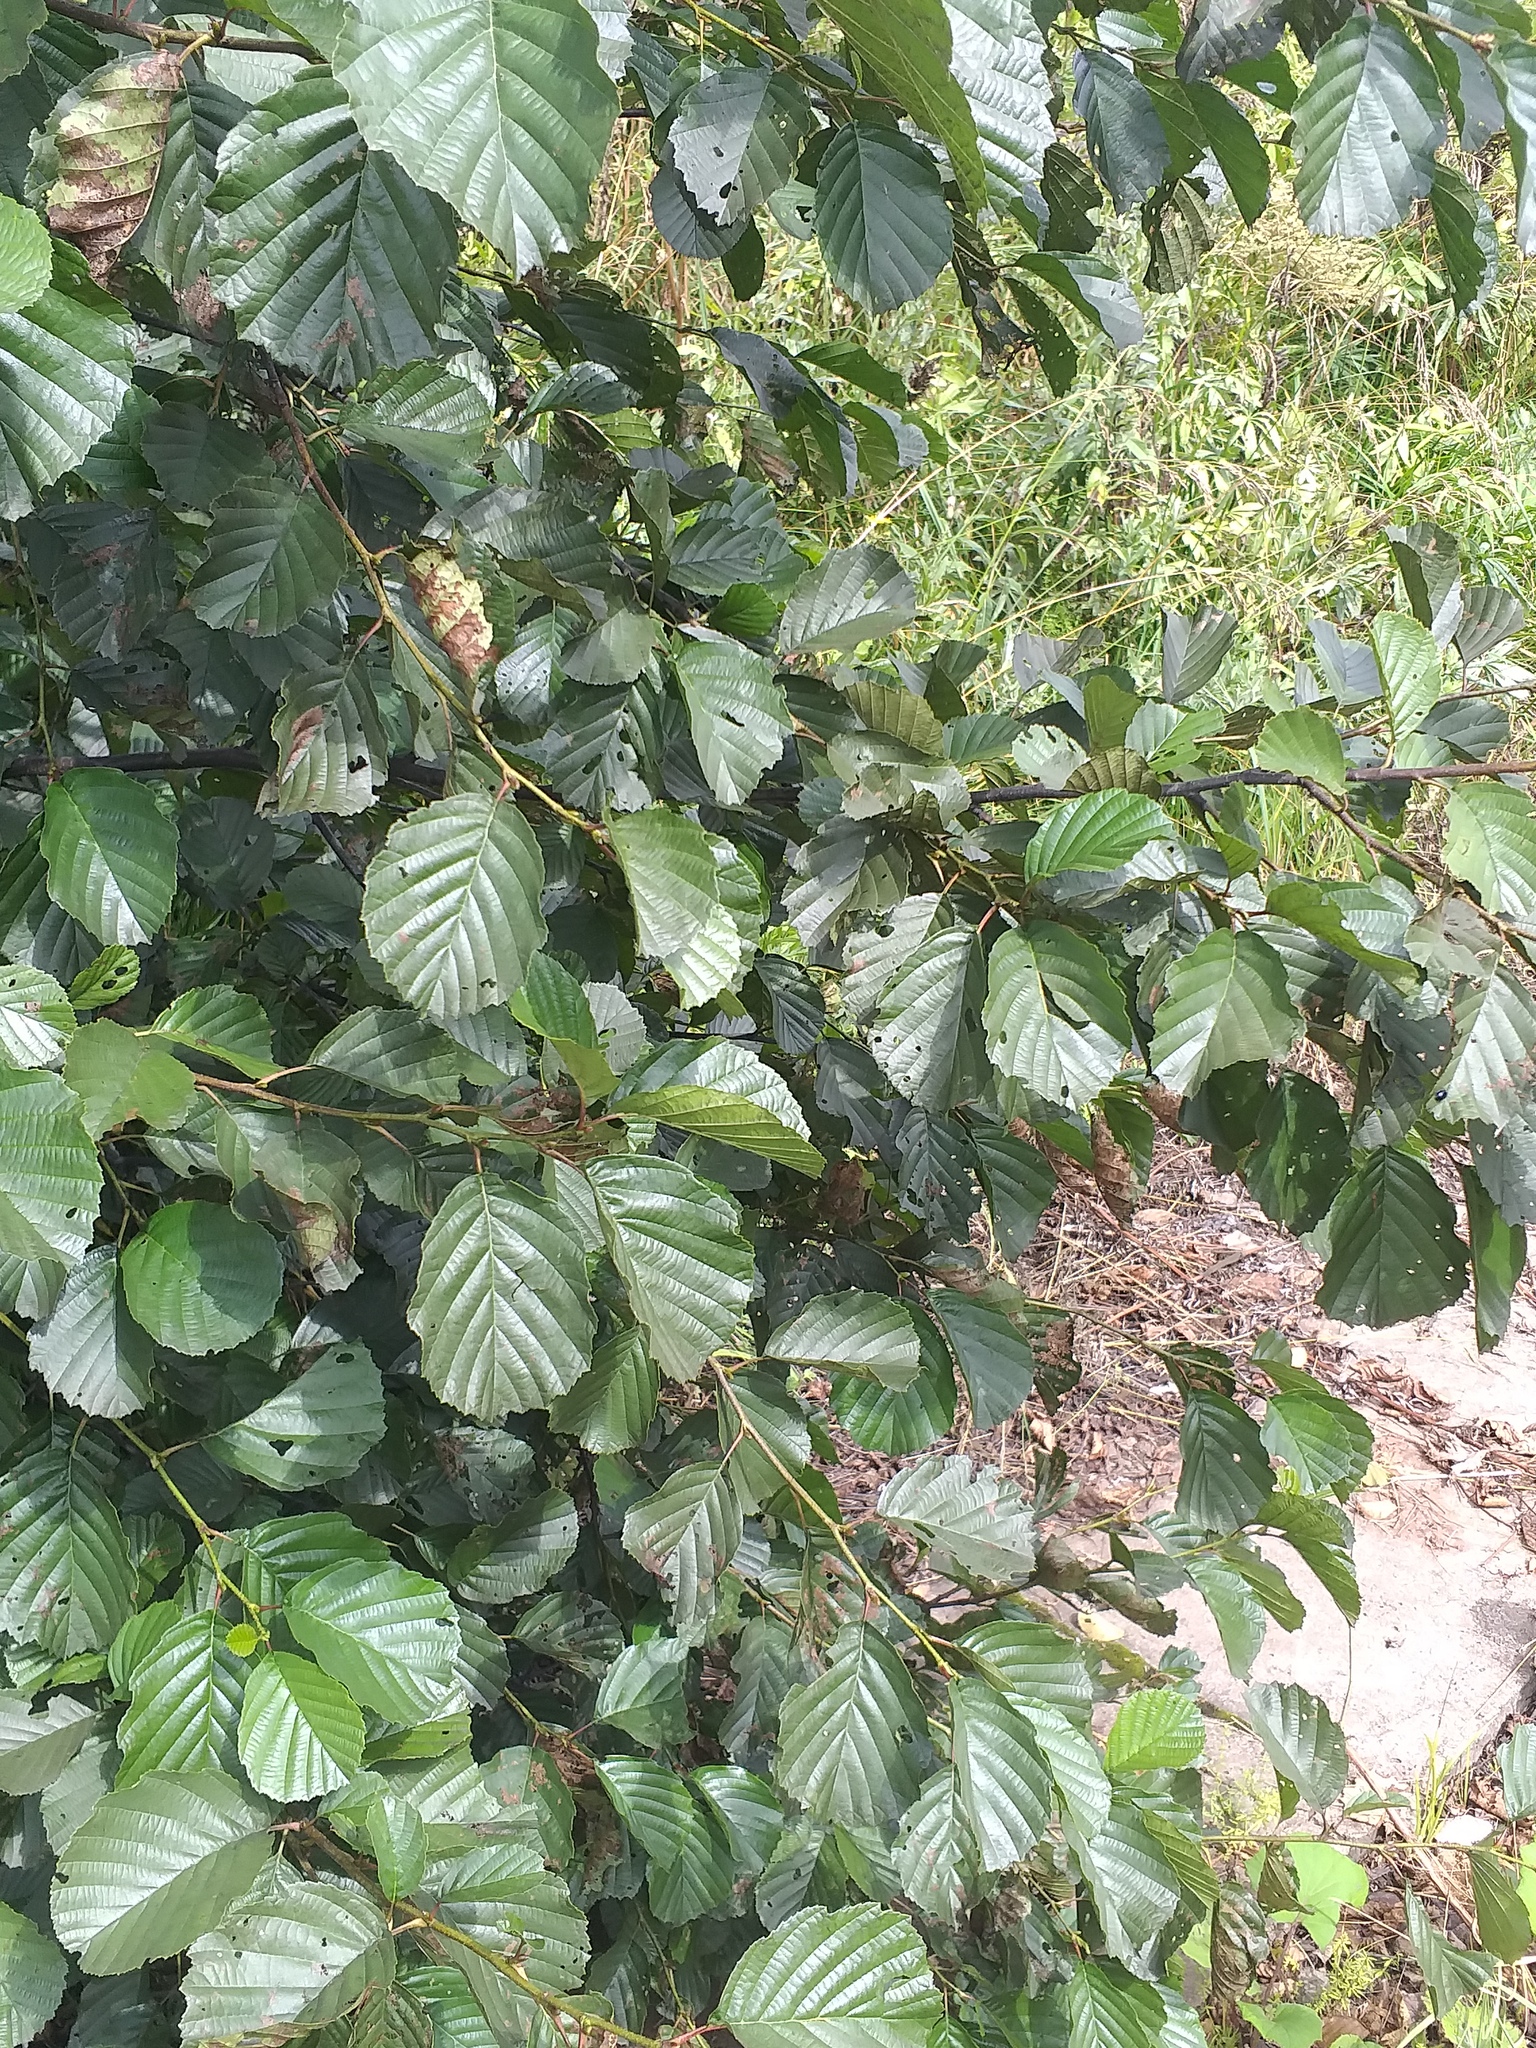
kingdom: Plantae
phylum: Tracheophyta
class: Magnoliopsida
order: Fagales
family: Betulaceae
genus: Alnus
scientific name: Alnus glutinosa
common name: Black alder
